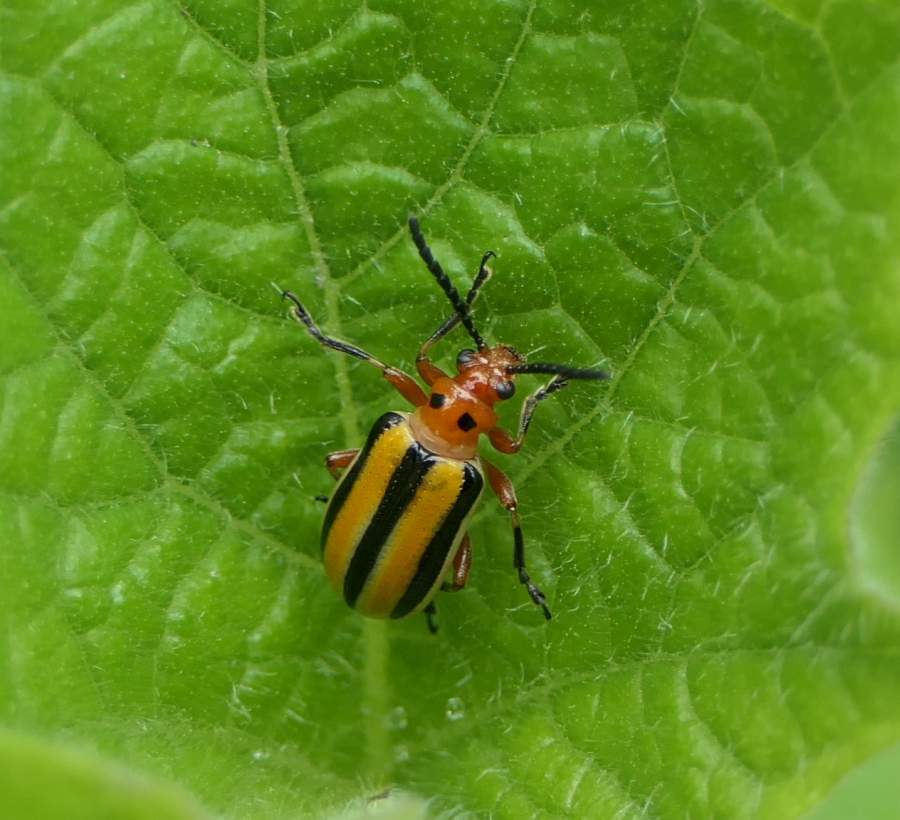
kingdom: Animalia
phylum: Arthropoda
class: Insecta
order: Coleoptera
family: Chrysomelidae
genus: Lema
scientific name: Lema daturaphila
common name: Leaf beetle
